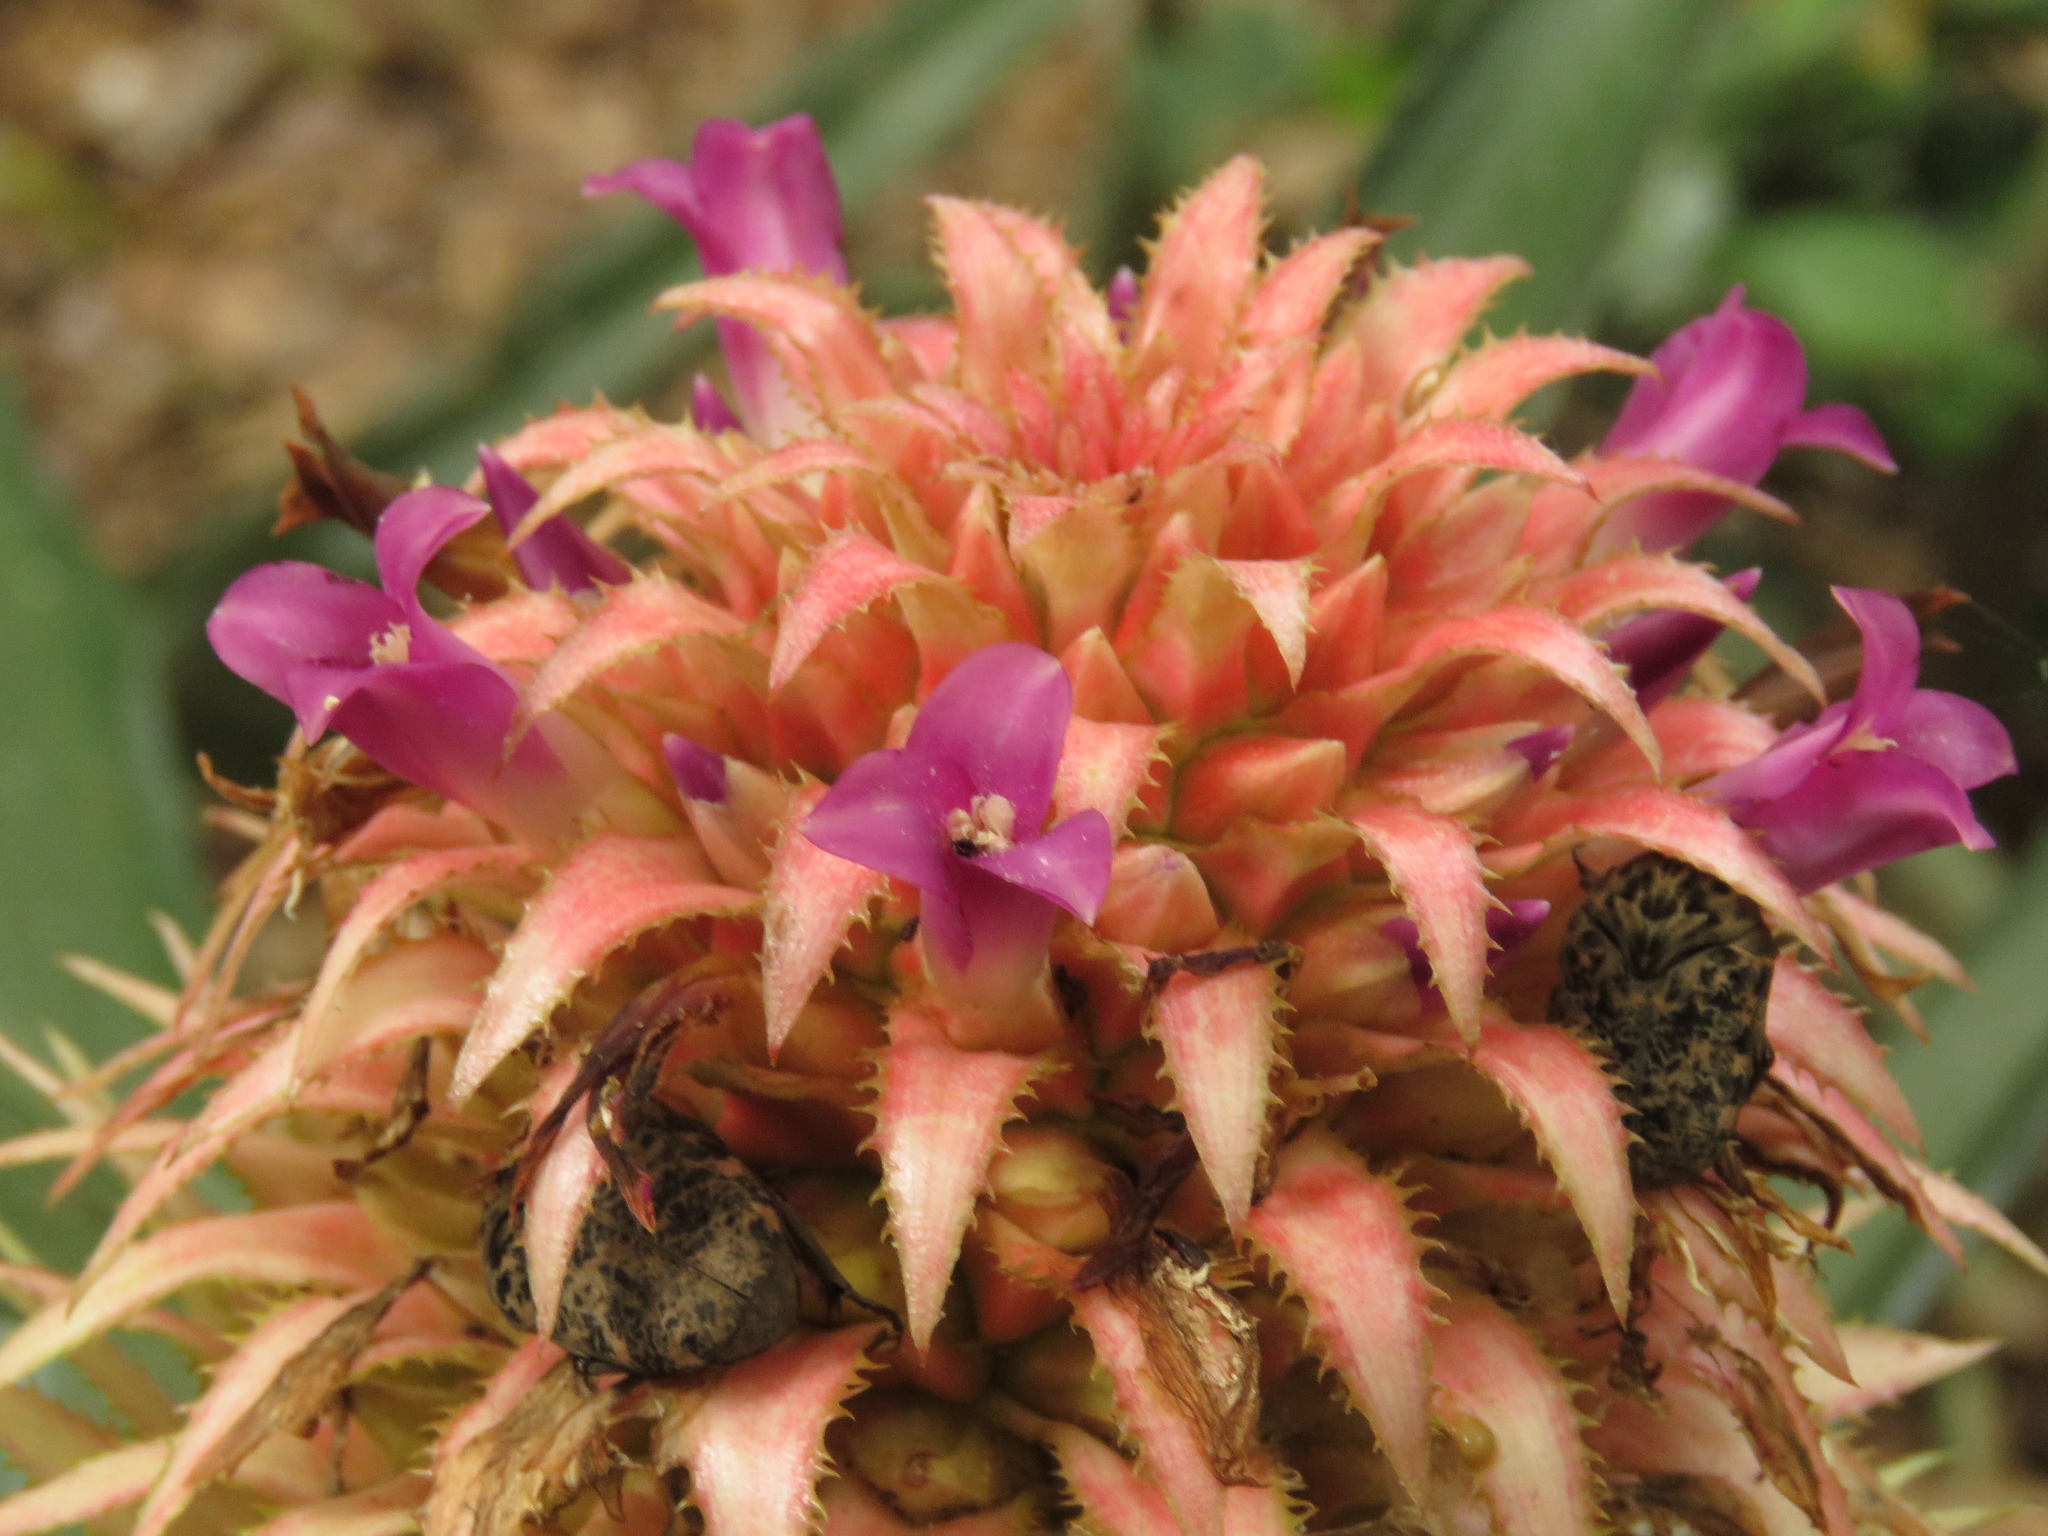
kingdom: Plantae
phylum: Tracheophyta
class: Liliopsida
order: Poales
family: Bromeliaceae
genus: Ananas
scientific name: Ananas comosus
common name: Pineapple
